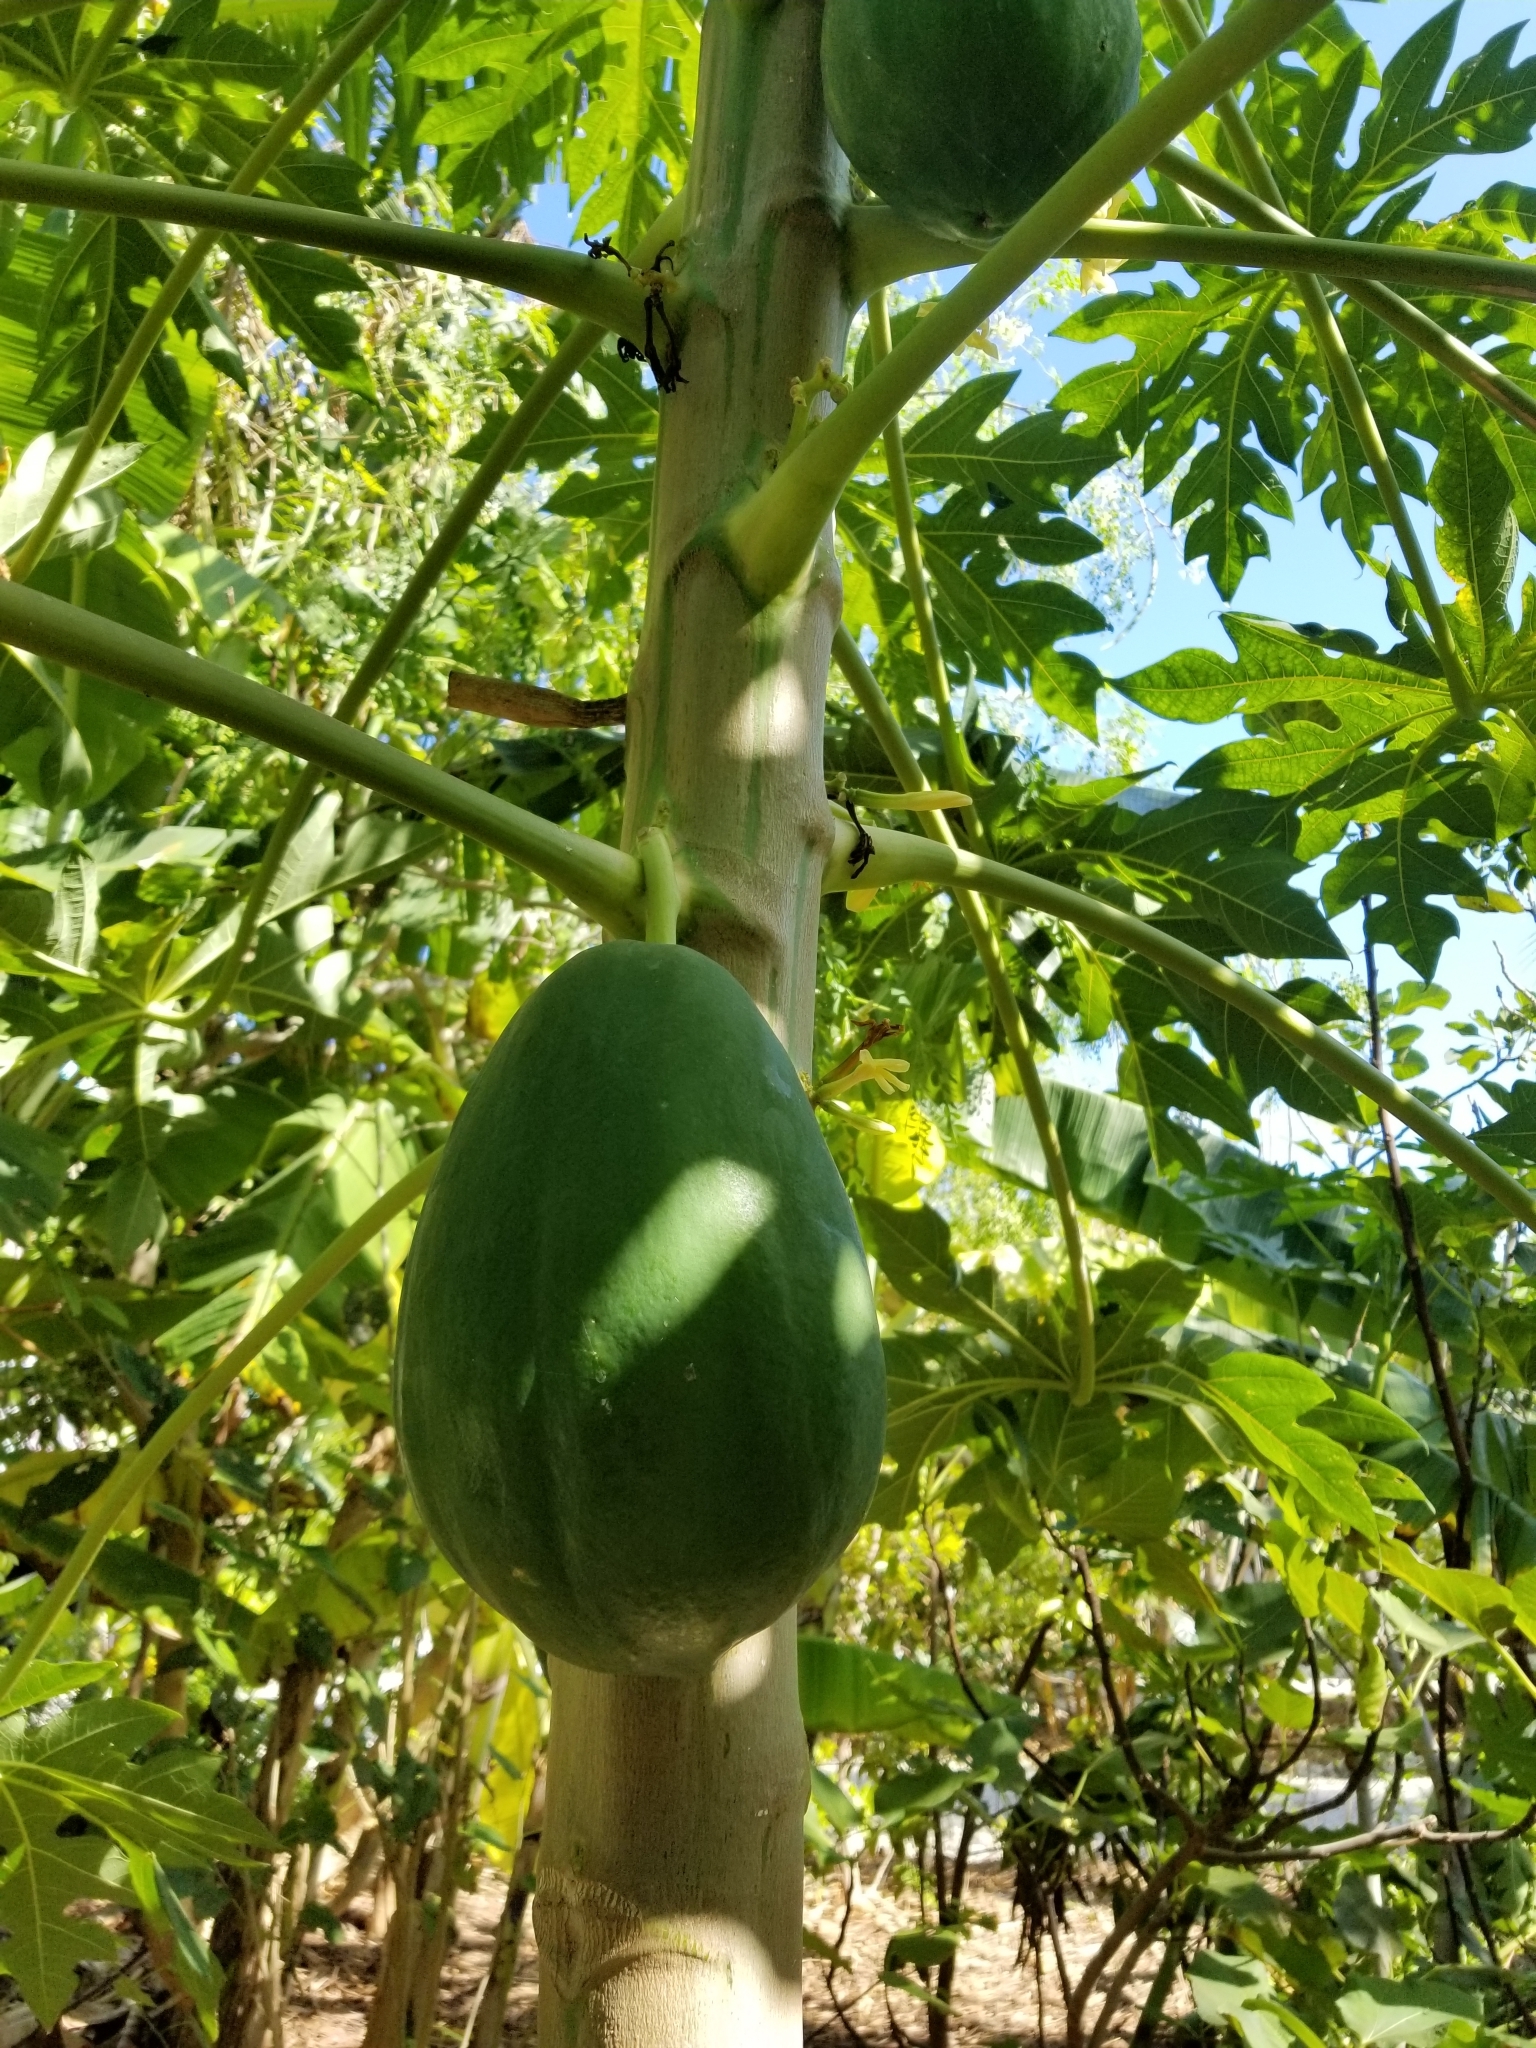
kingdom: Plantae
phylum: Tracheophyta
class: Magnoliopsida
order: Brassicales
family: Caricaceae
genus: Carica
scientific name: Carica papaya
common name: Papaya
